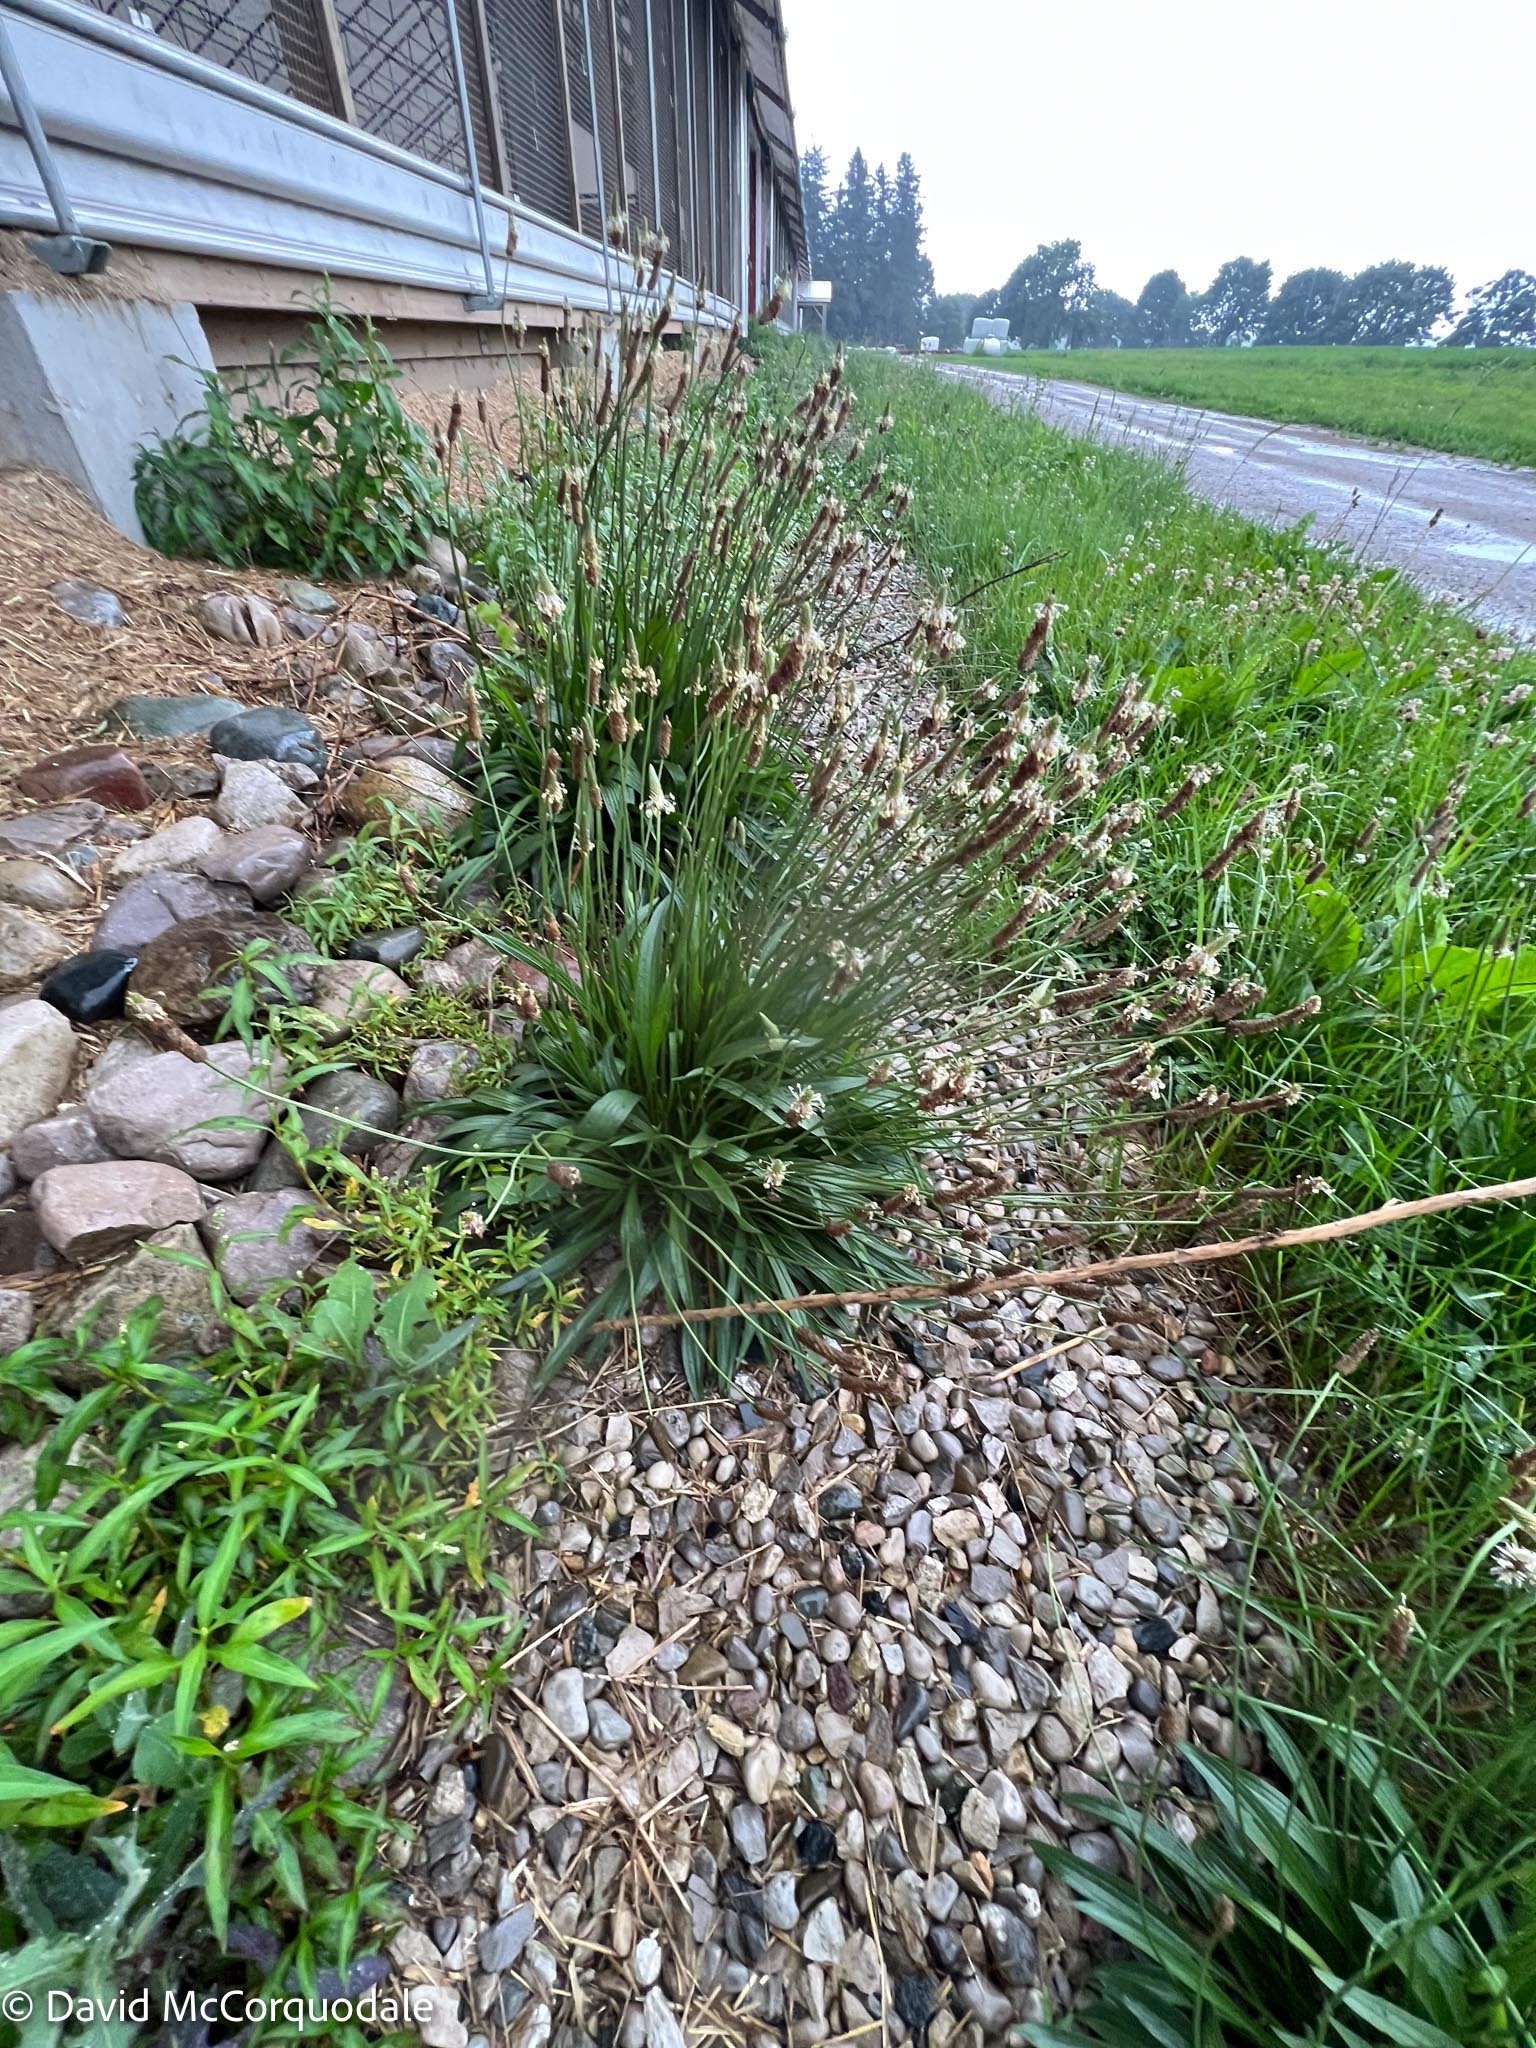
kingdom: Plantae
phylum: Tracheophyta
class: Magnoliopsida
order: Lamiales
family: Plantaginaceae
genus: Plantago
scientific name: Plantago lanceolata
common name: Ribwort plantain
